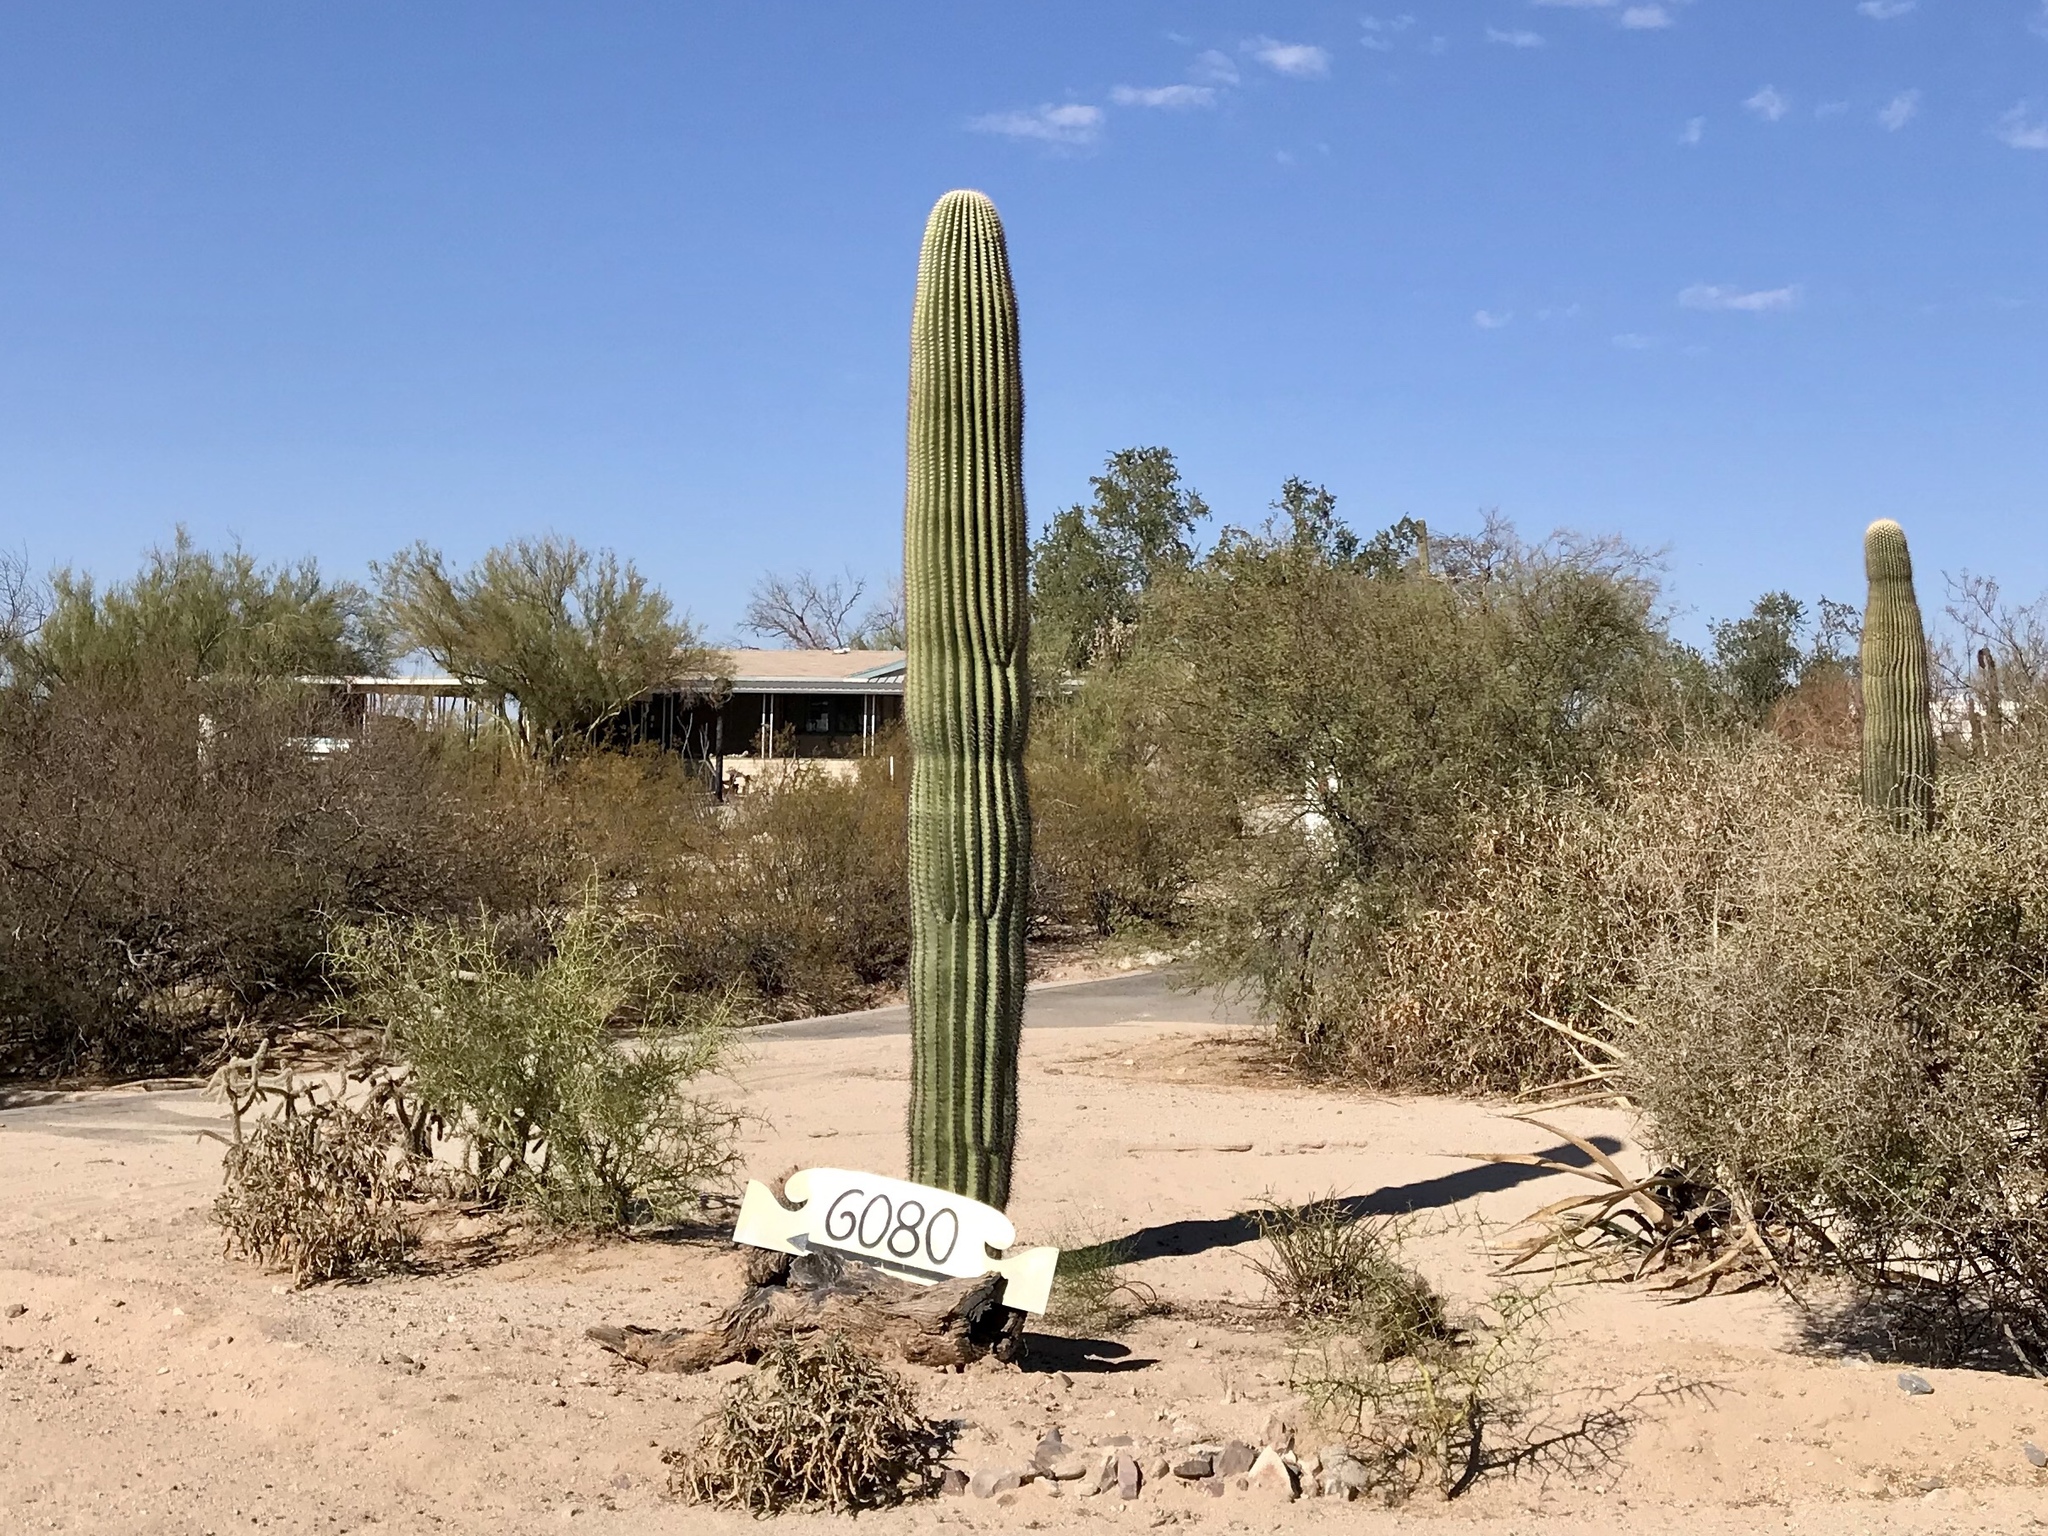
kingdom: Plantae
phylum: Tracheophyta
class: Magnoliopsida
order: Caryophyllales
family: Cactaceae
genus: Carnegiea
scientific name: Carnegiea gigantea
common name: Saguaro
